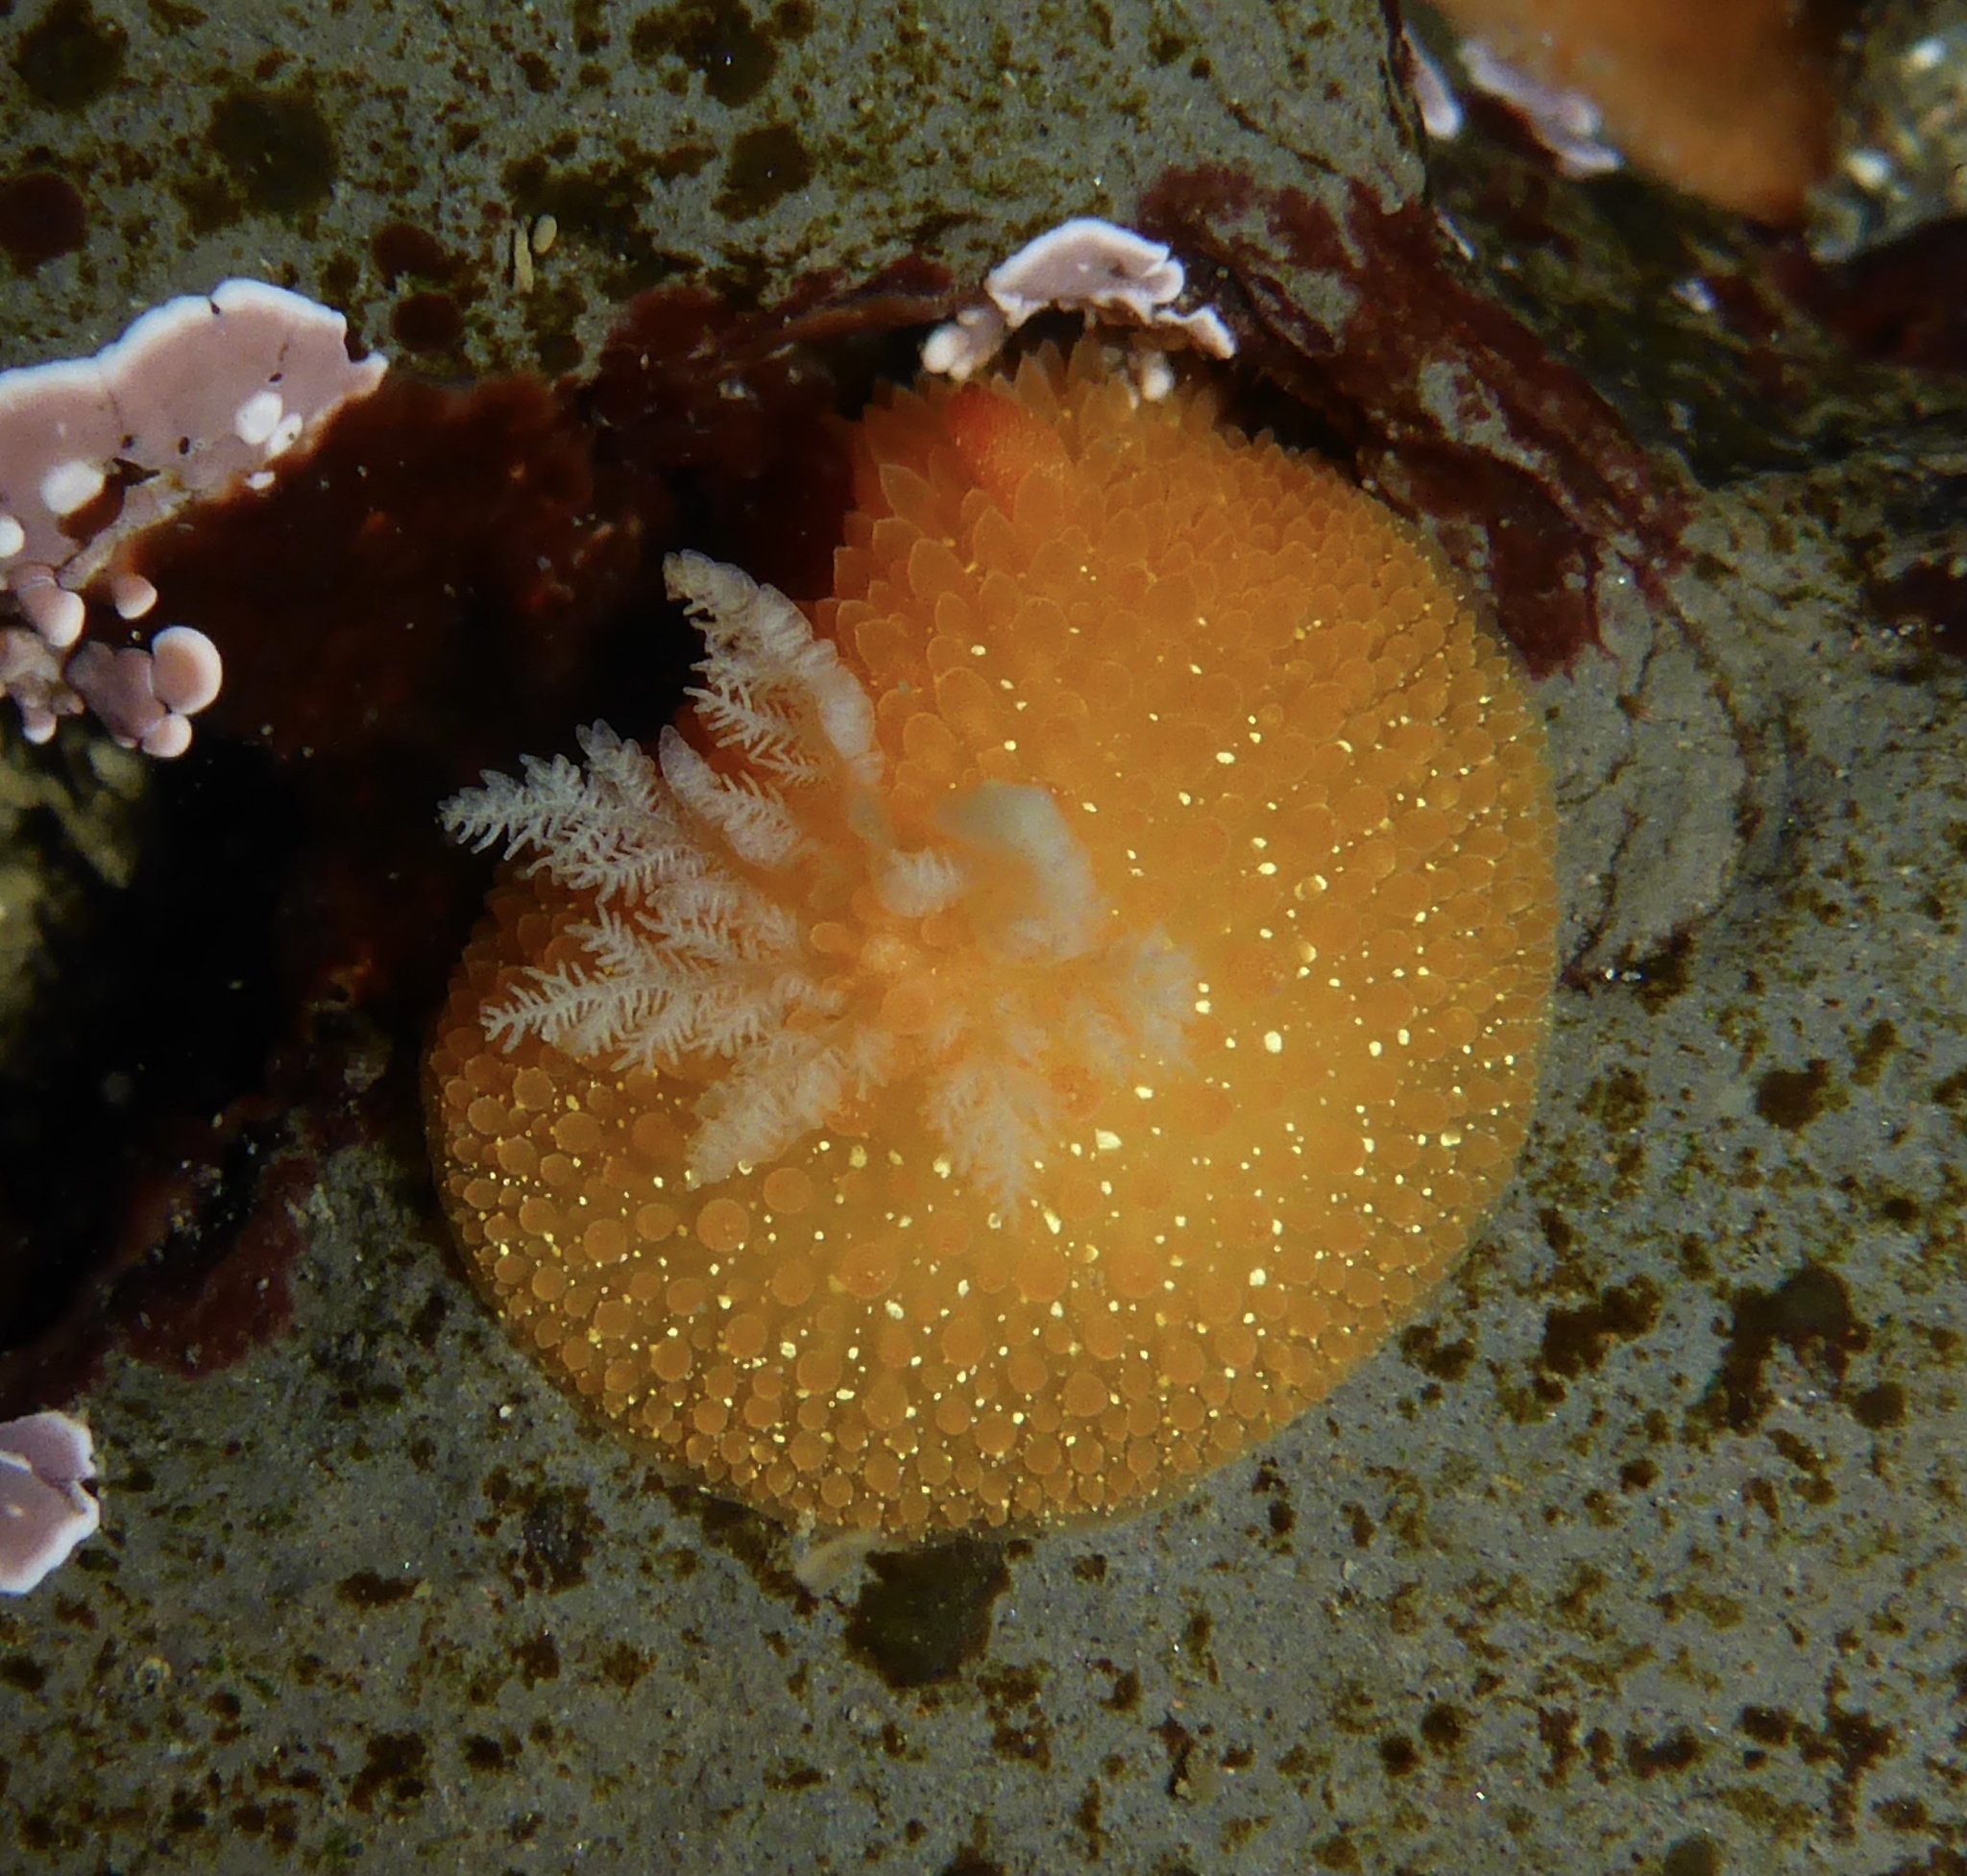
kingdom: Animalia
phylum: Mollusca
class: Gastropoda
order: Nudibranchia
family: Onchidorididae
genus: Acanthodoris
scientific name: Acanthodoris lutea
